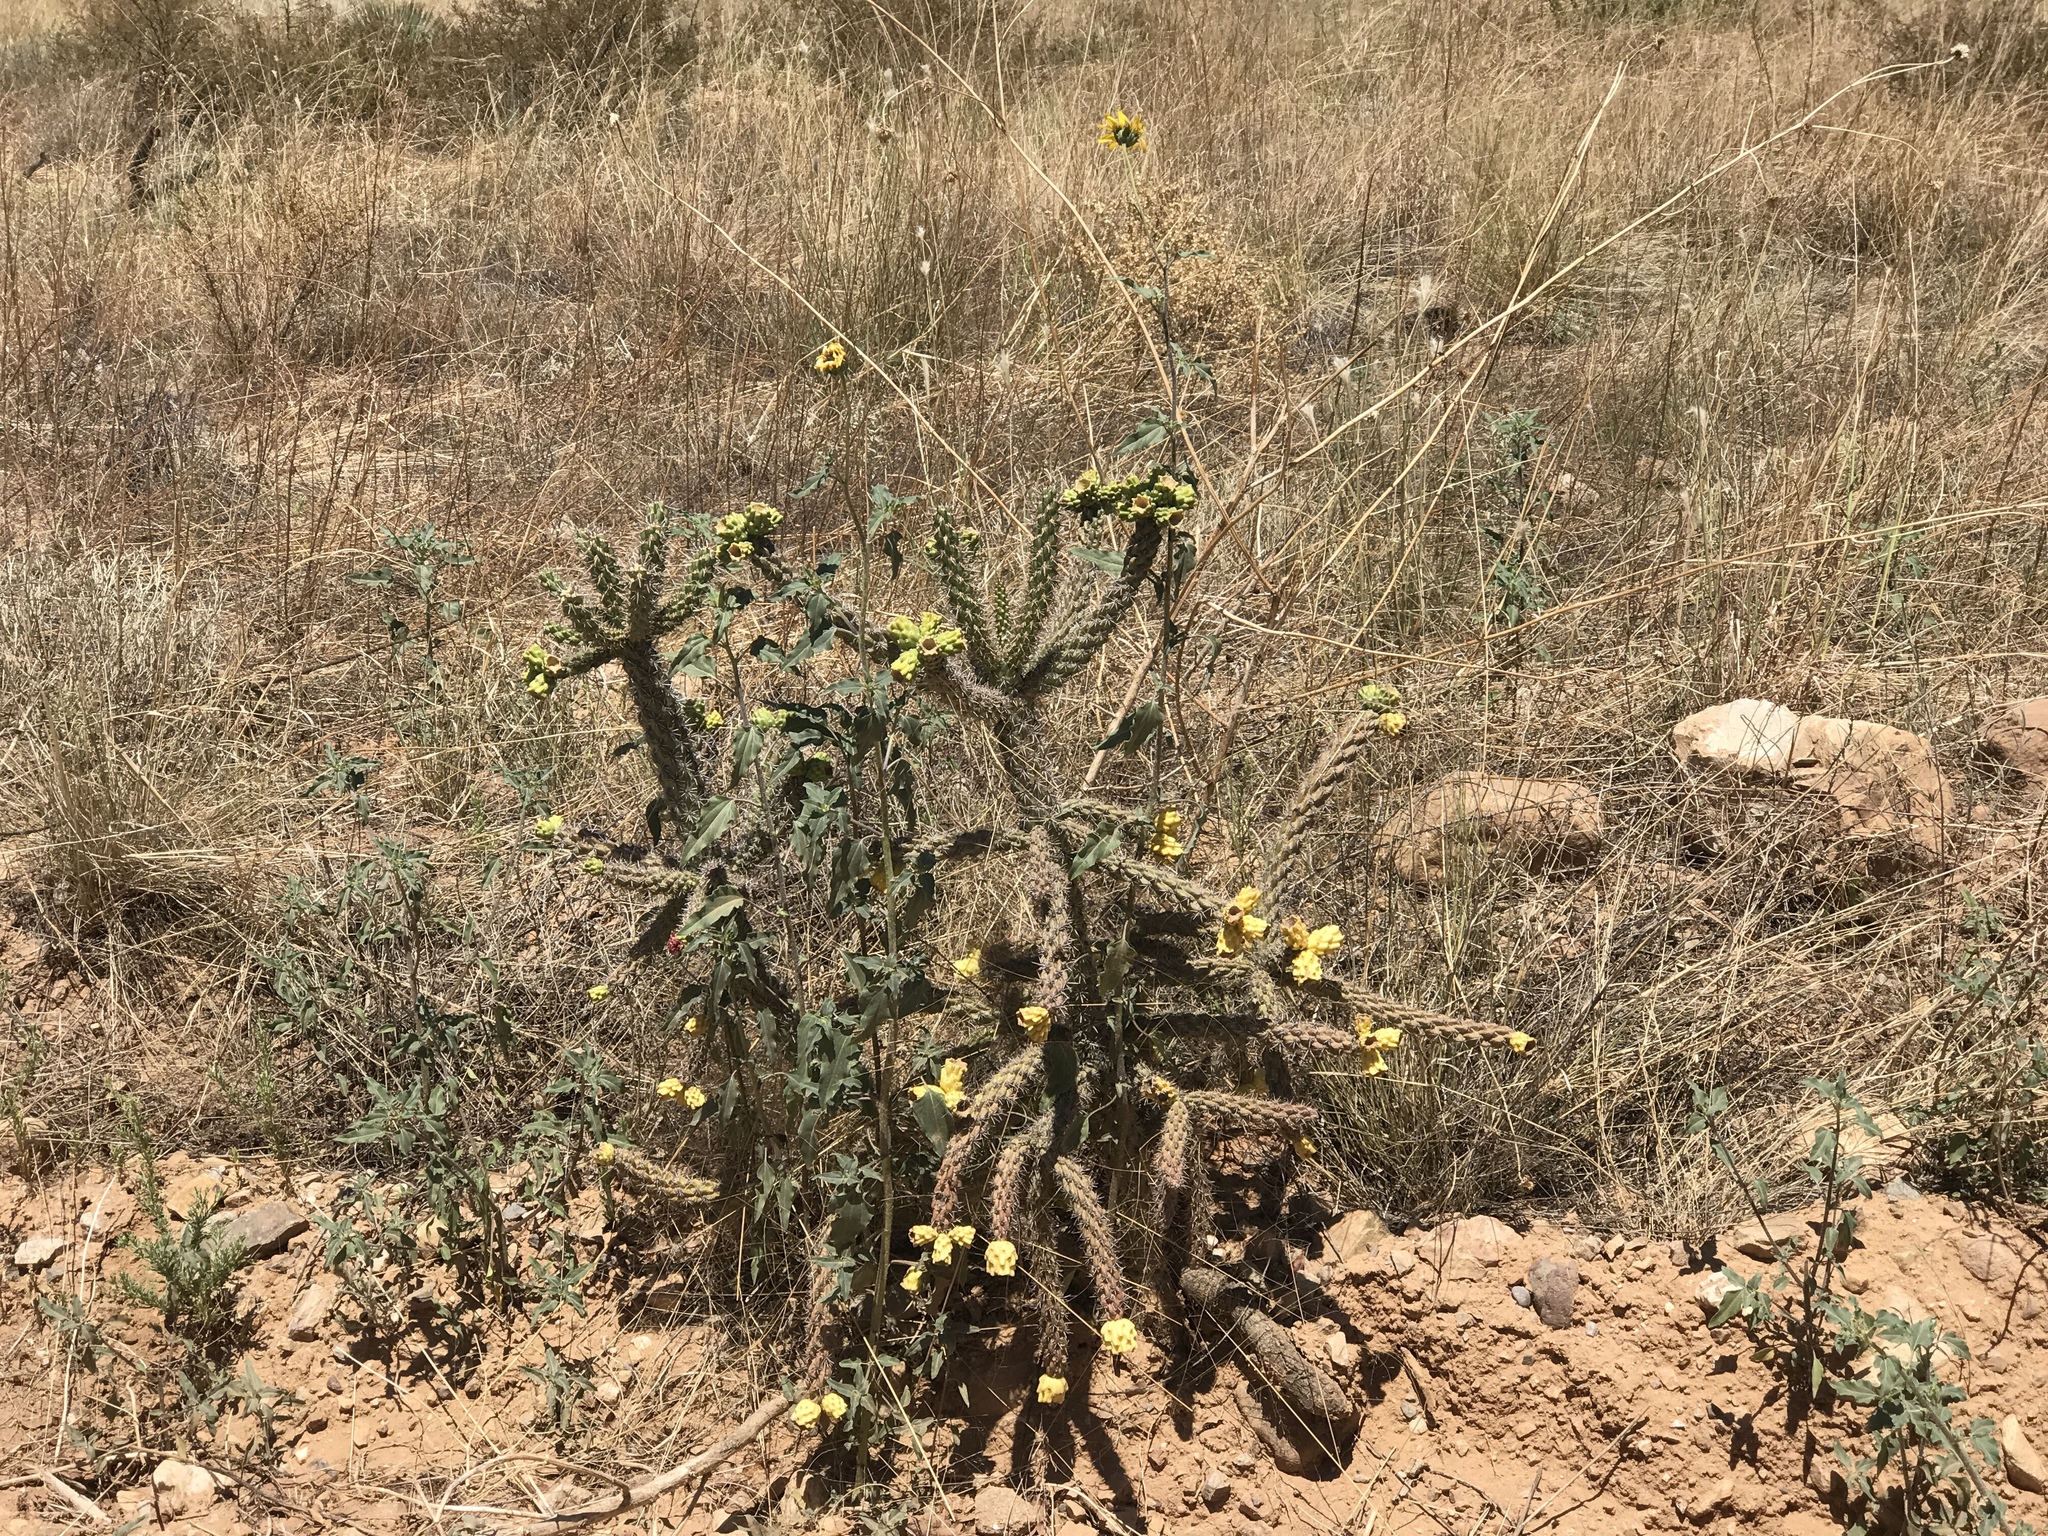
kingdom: Plantae
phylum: Tracheophyta
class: Magnoliopsida
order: Caryophyllales
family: Cactaceae
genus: Cylindropuntia
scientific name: Cylindropuntia imbricata
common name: Candelabrum cactus
